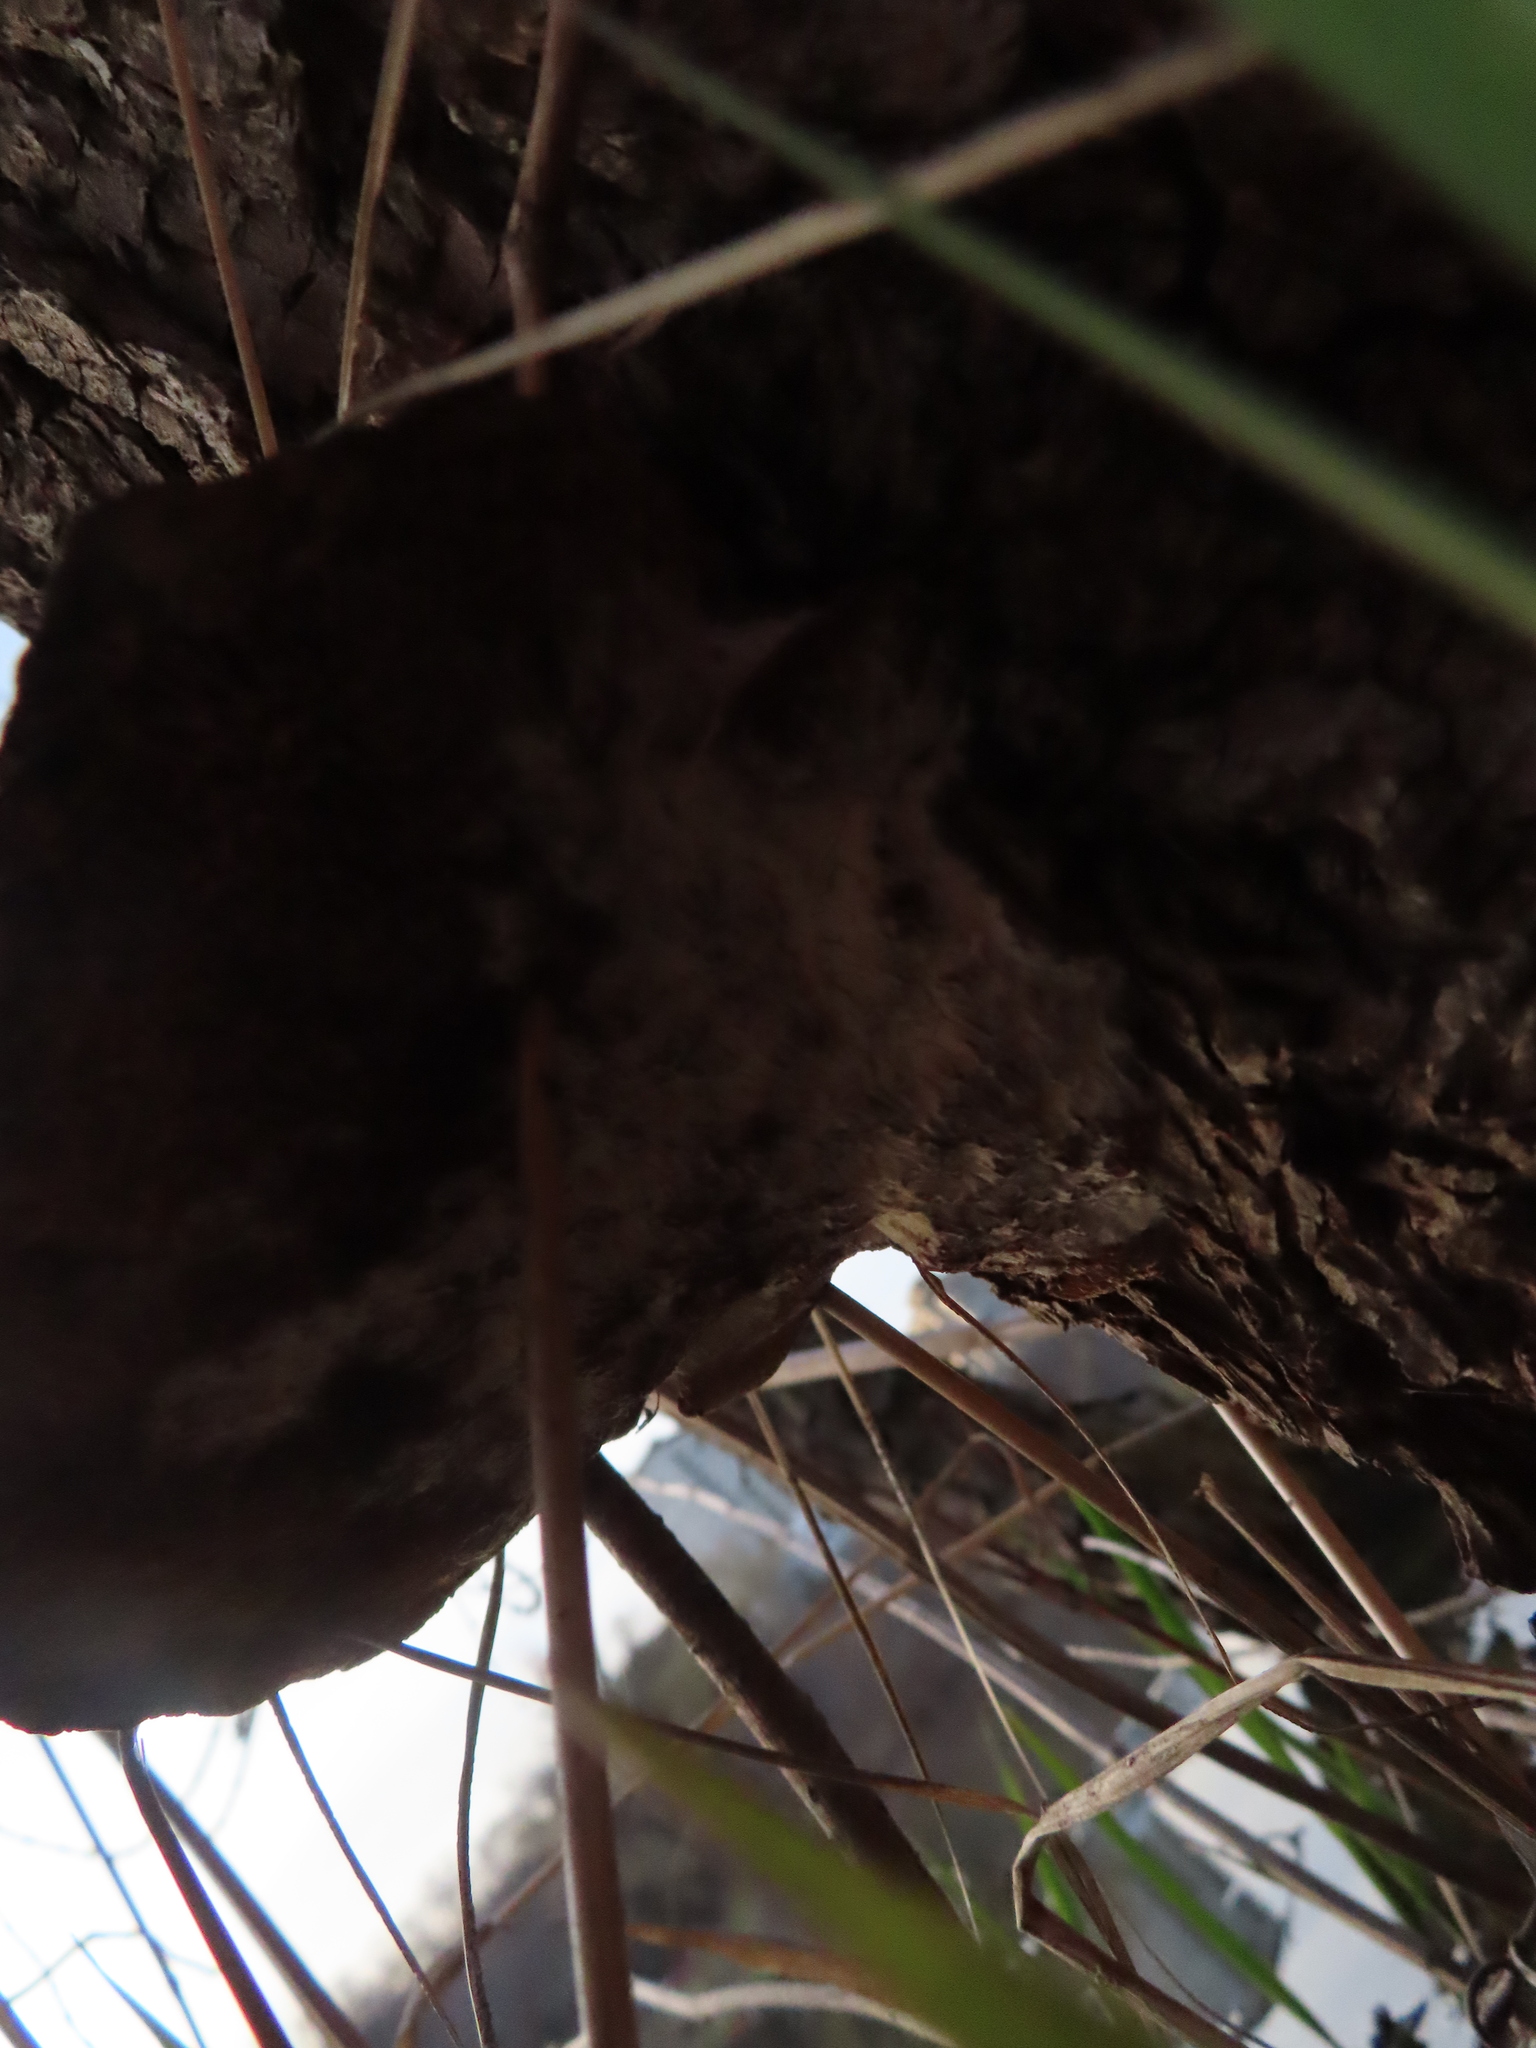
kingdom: Fungi
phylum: Basidiomycota
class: Agaricomycetes
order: Polyporales
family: Polyporaceae
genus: Daedaleopsis
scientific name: Daedaleopsis confragosa
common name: Blushing bracket
